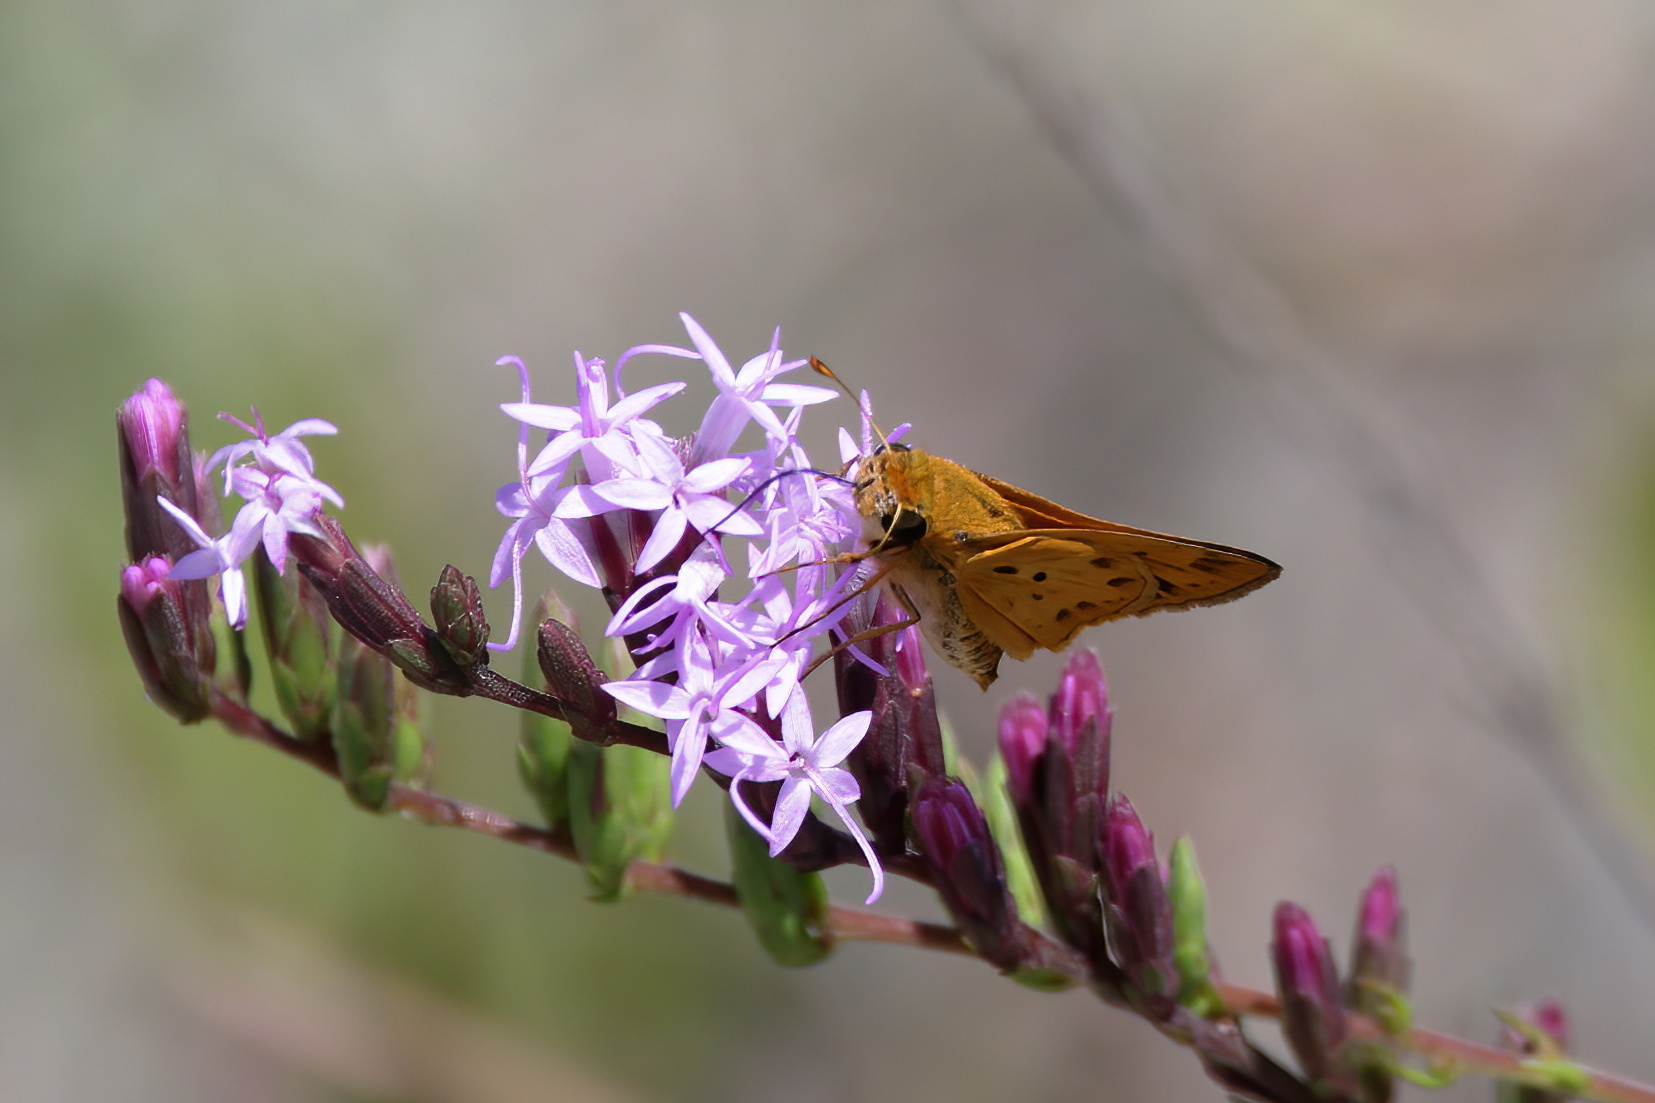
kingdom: Animalia
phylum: Arthropoda
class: Insecta
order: Lepidoptera
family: Hesperiidae
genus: Hylephila
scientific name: Hylephila phyleus
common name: Fiery skipper
